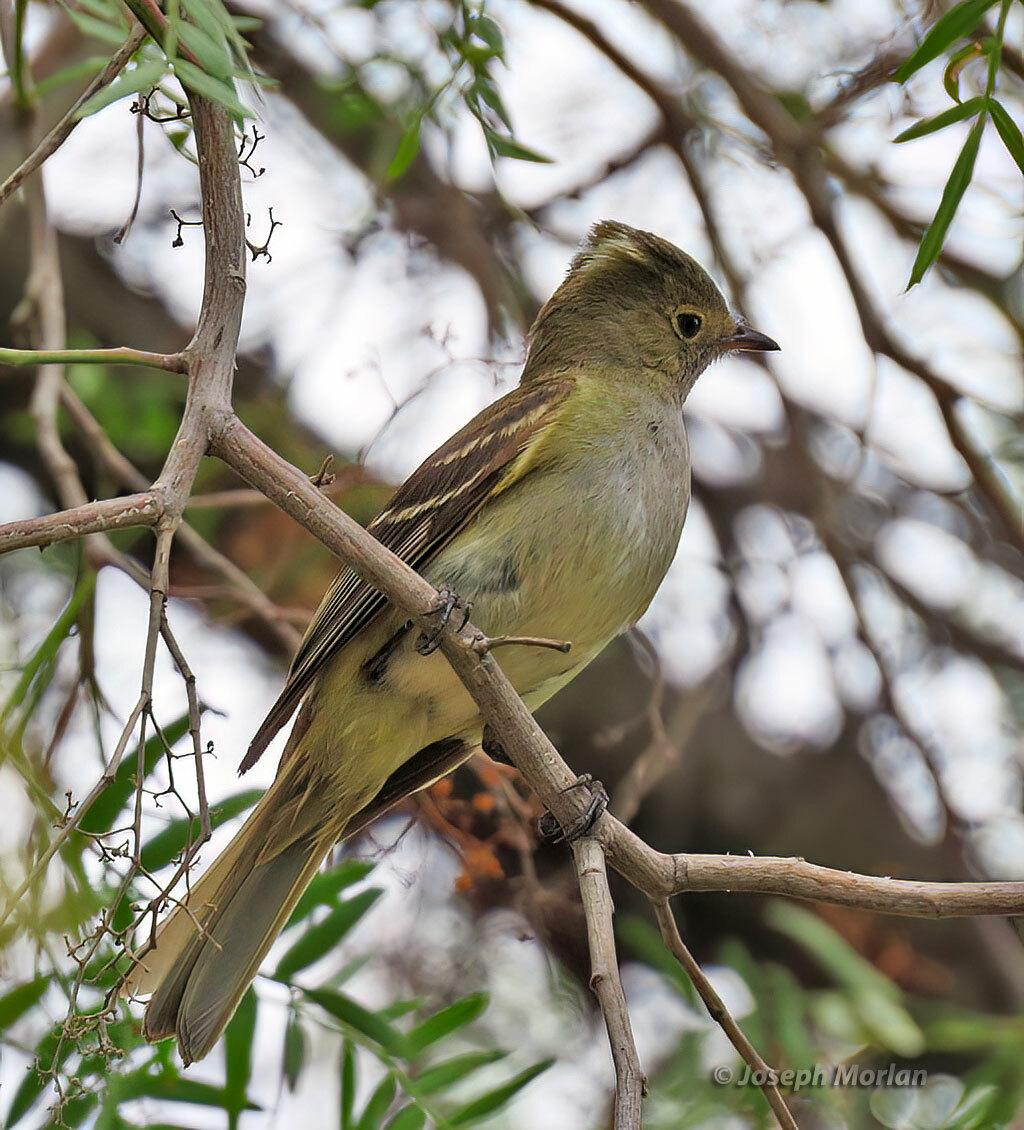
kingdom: Animalia
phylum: Chordata
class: Aves
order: Passeriformes
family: Tyrannidae
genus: Elaenia
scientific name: Elaenia albiceps
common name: White-crested elaenia
